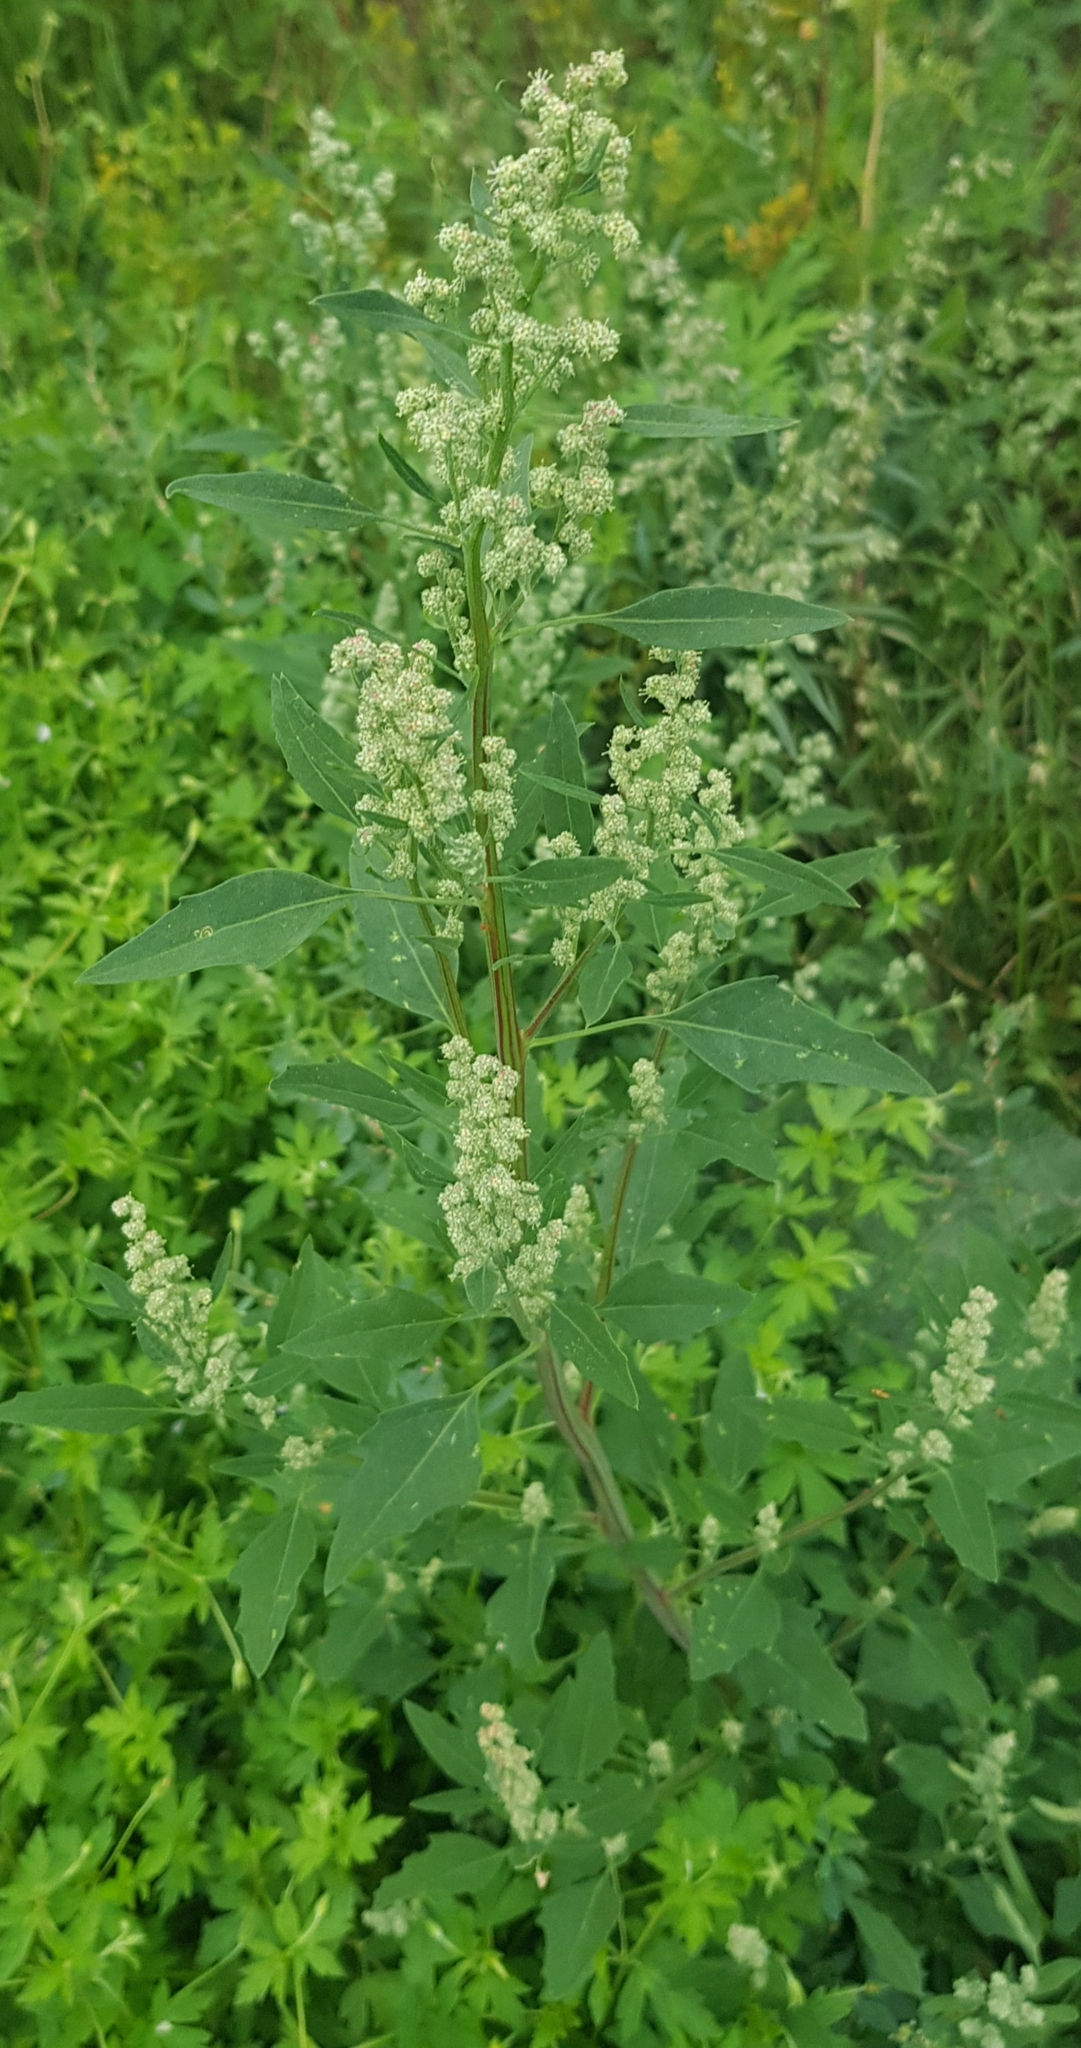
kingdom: Plantae
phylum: Tracheophyta
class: Magnoliopsida
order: Caryophyllales
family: Amaranthaceae
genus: Chenopodium
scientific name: Chenopodium acuminatum
